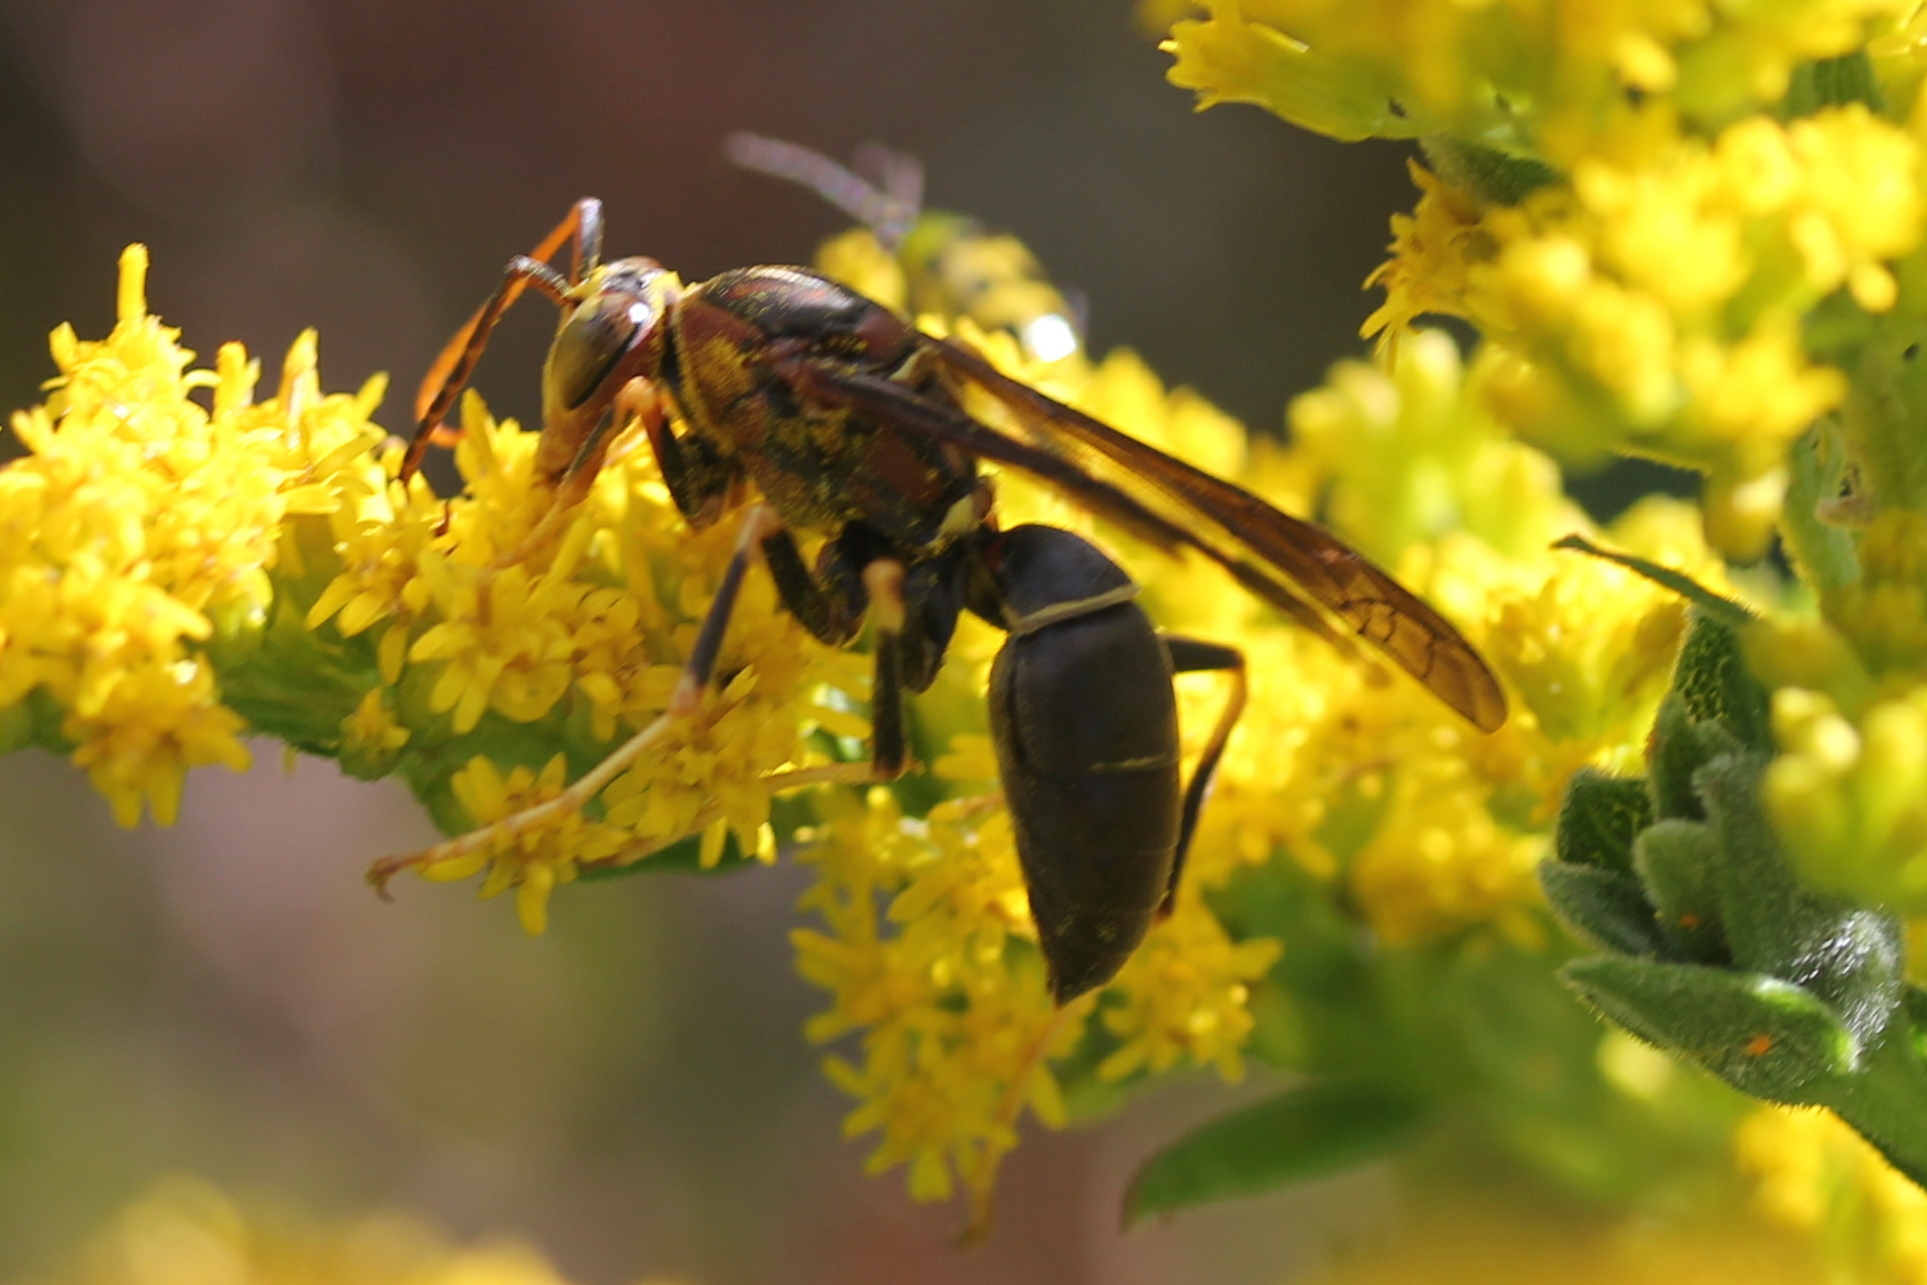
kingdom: Animalia
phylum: Arthropoda
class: Insecta
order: Hymenoptera
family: Eumenidae
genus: Polistes
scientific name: Polistes metricus
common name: Metric paper wasp
